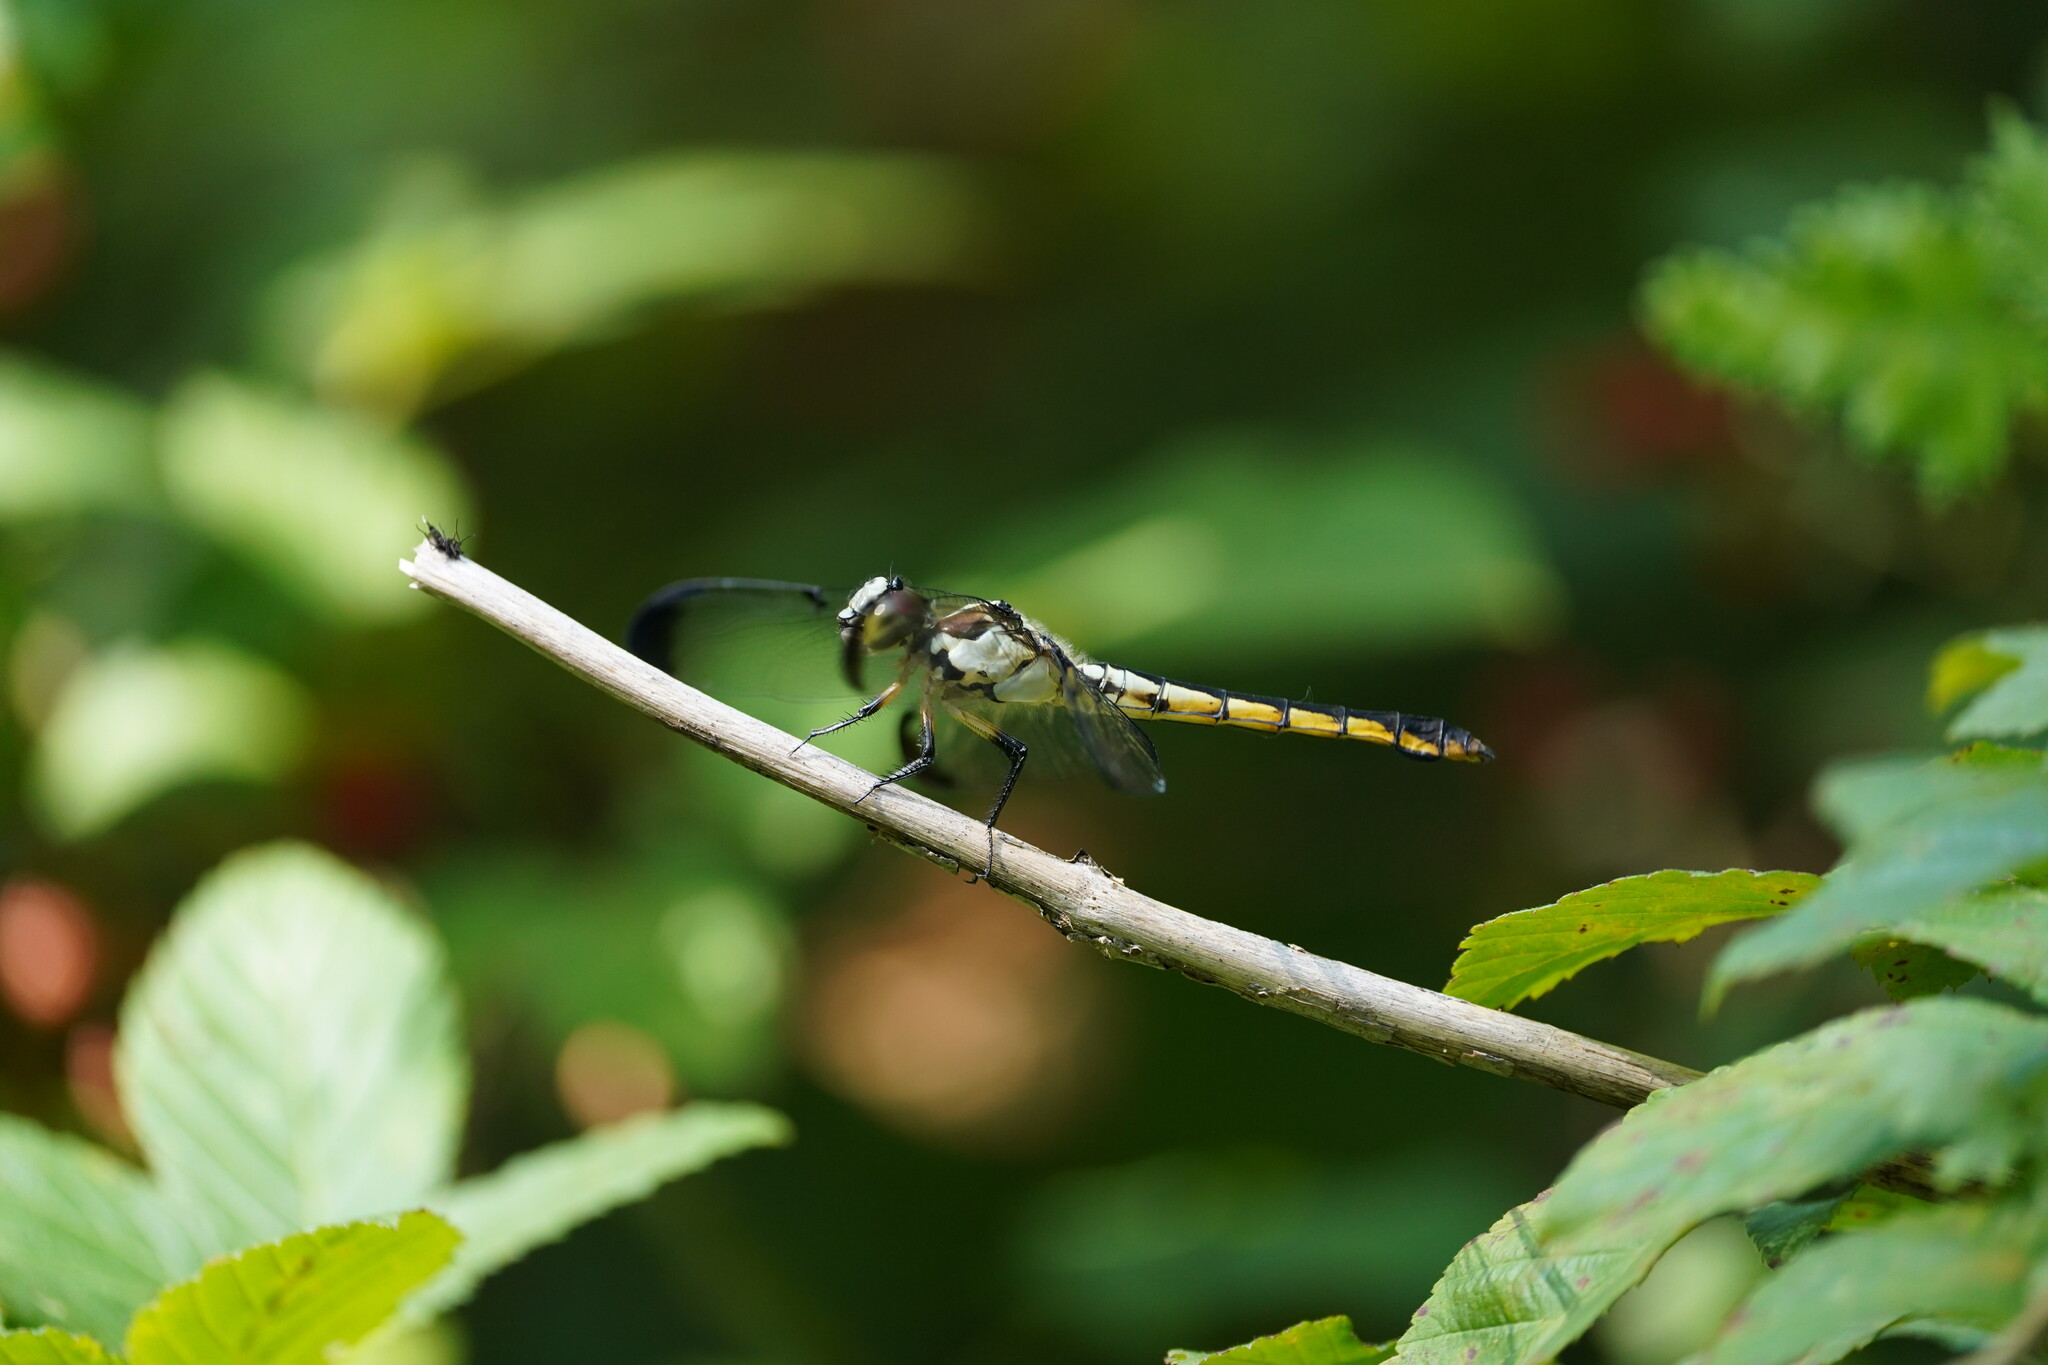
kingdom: Animalia
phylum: Arthropoda
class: Insecta
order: Odonata
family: Libellulidae
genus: Libellula
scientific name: Libellula vibrans
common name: Great blue skimmer
